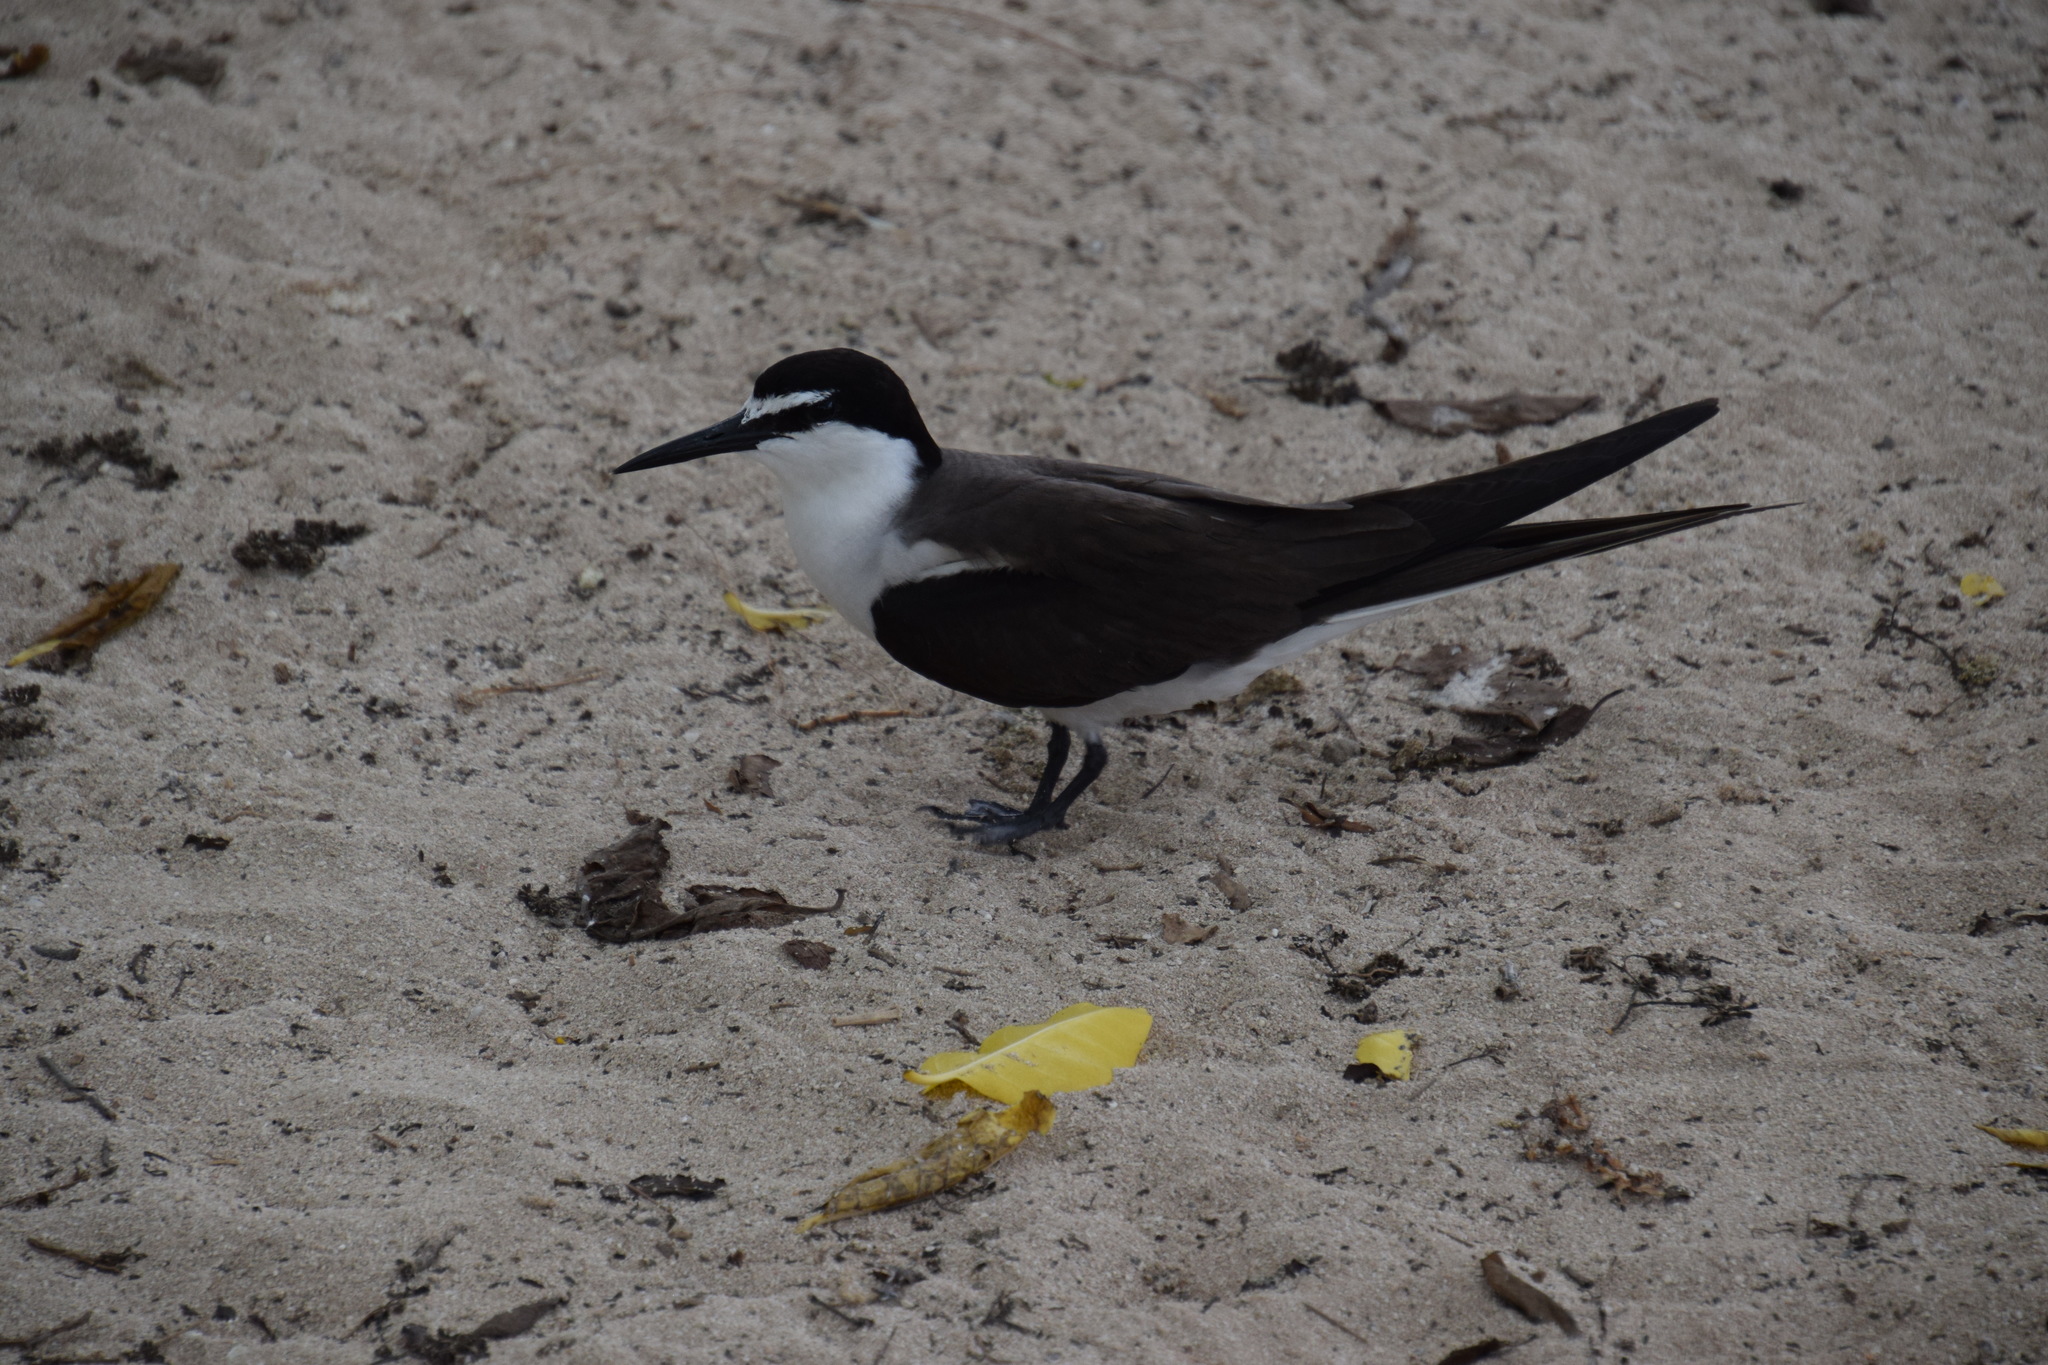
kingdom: Animalia
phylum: Chordata
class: Aves
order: Charadriiformes
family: Laridae
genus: Onychoprion
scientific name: Onychoprion anaethetus
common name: Bridled tern
